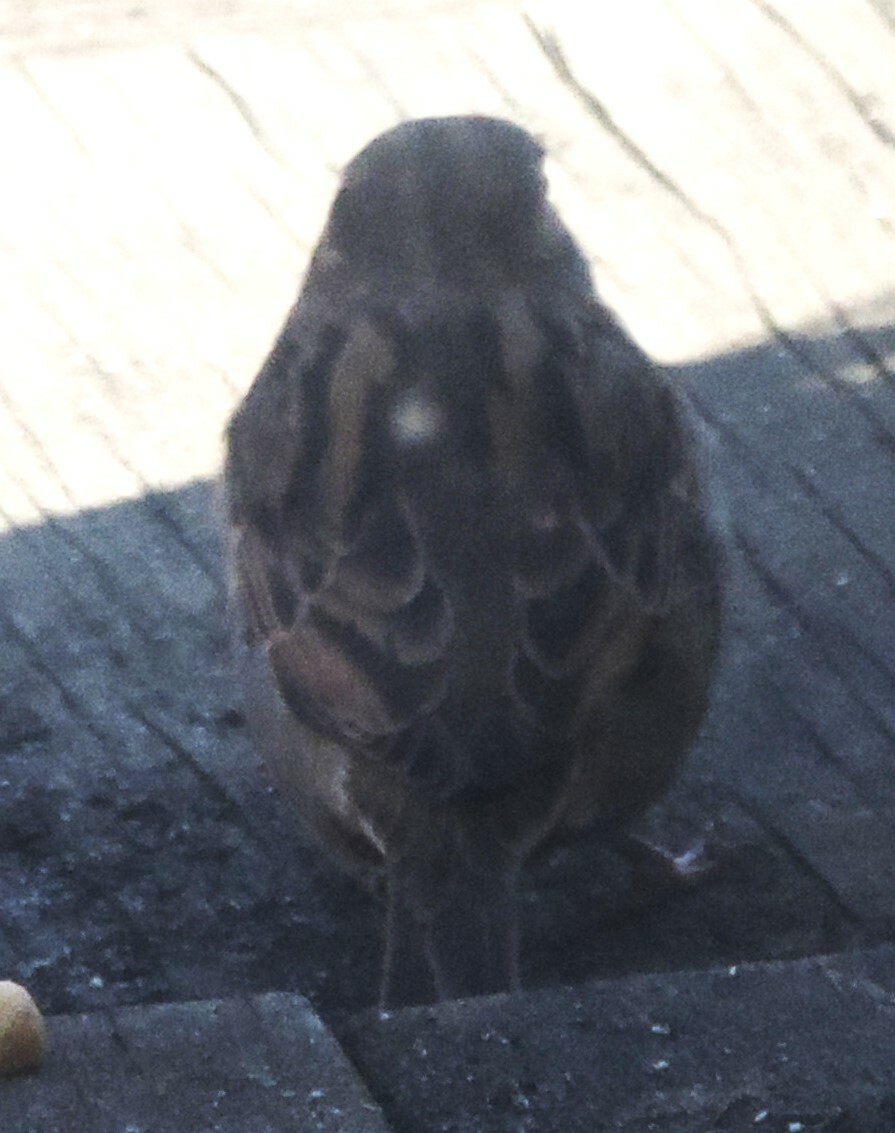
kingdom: Animalia
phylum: Chordata
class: Aves
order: Passeriformes
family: Passeridae
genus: Passer
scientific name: Passer domesticus
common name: House sparrow
